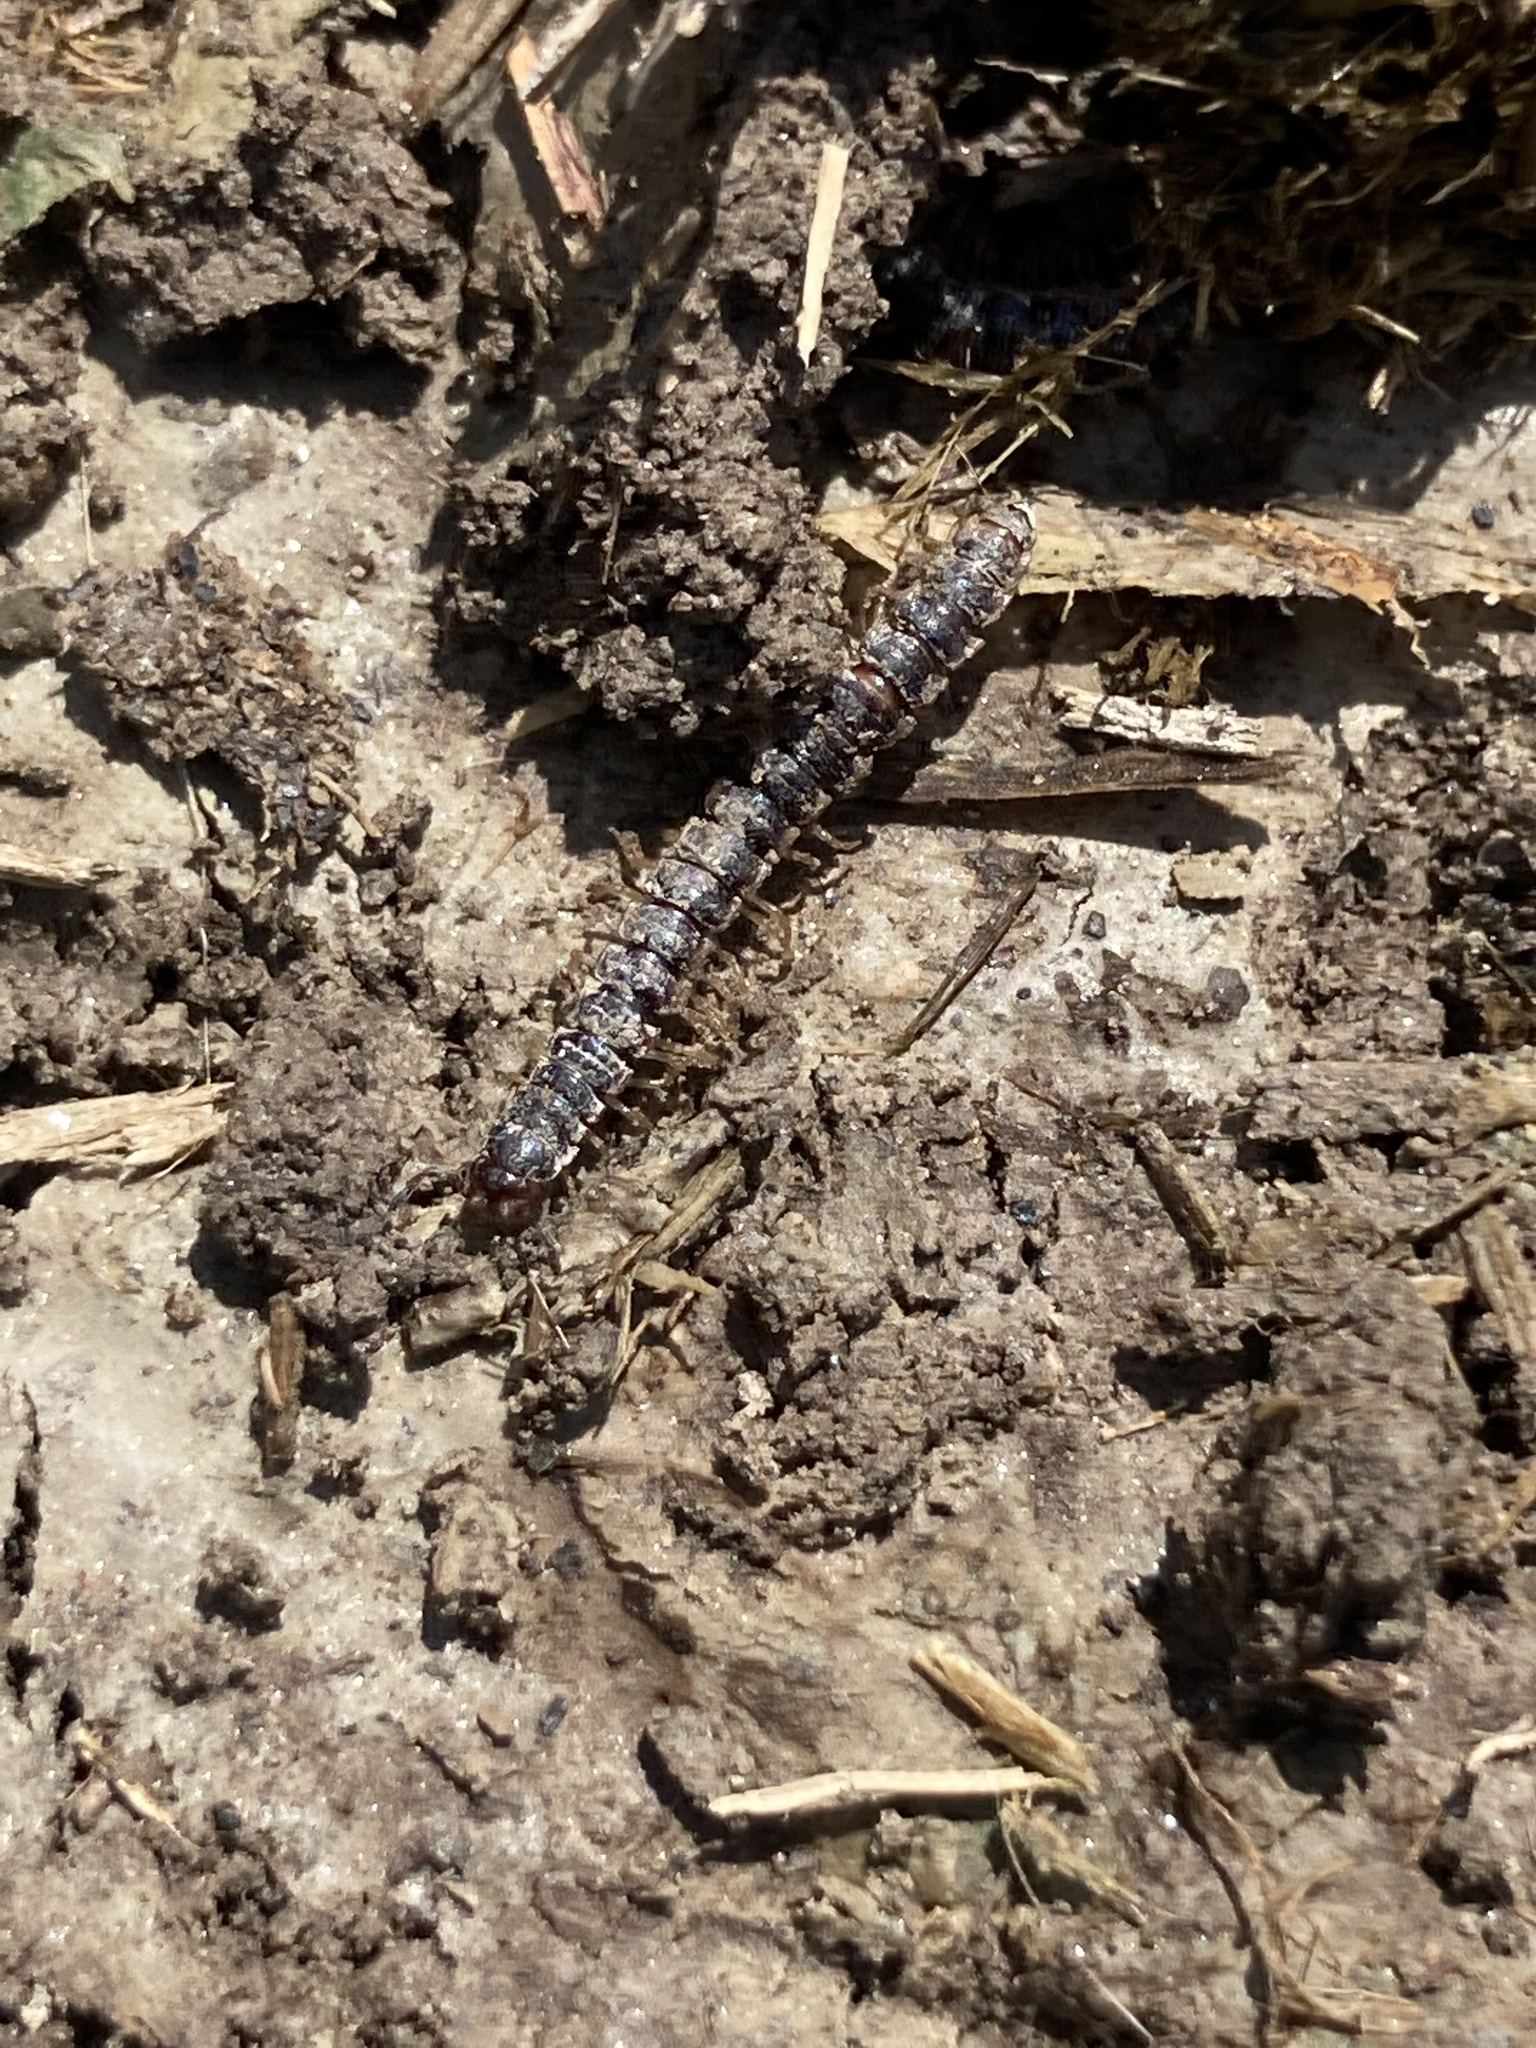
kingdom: Animalia
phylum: Arthropoda
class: Diplopoda
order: Polydesmida
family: Paradoxosomatidae
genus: Oxidus
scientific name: Oxidus gracilis
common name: Greenhouse millipede
